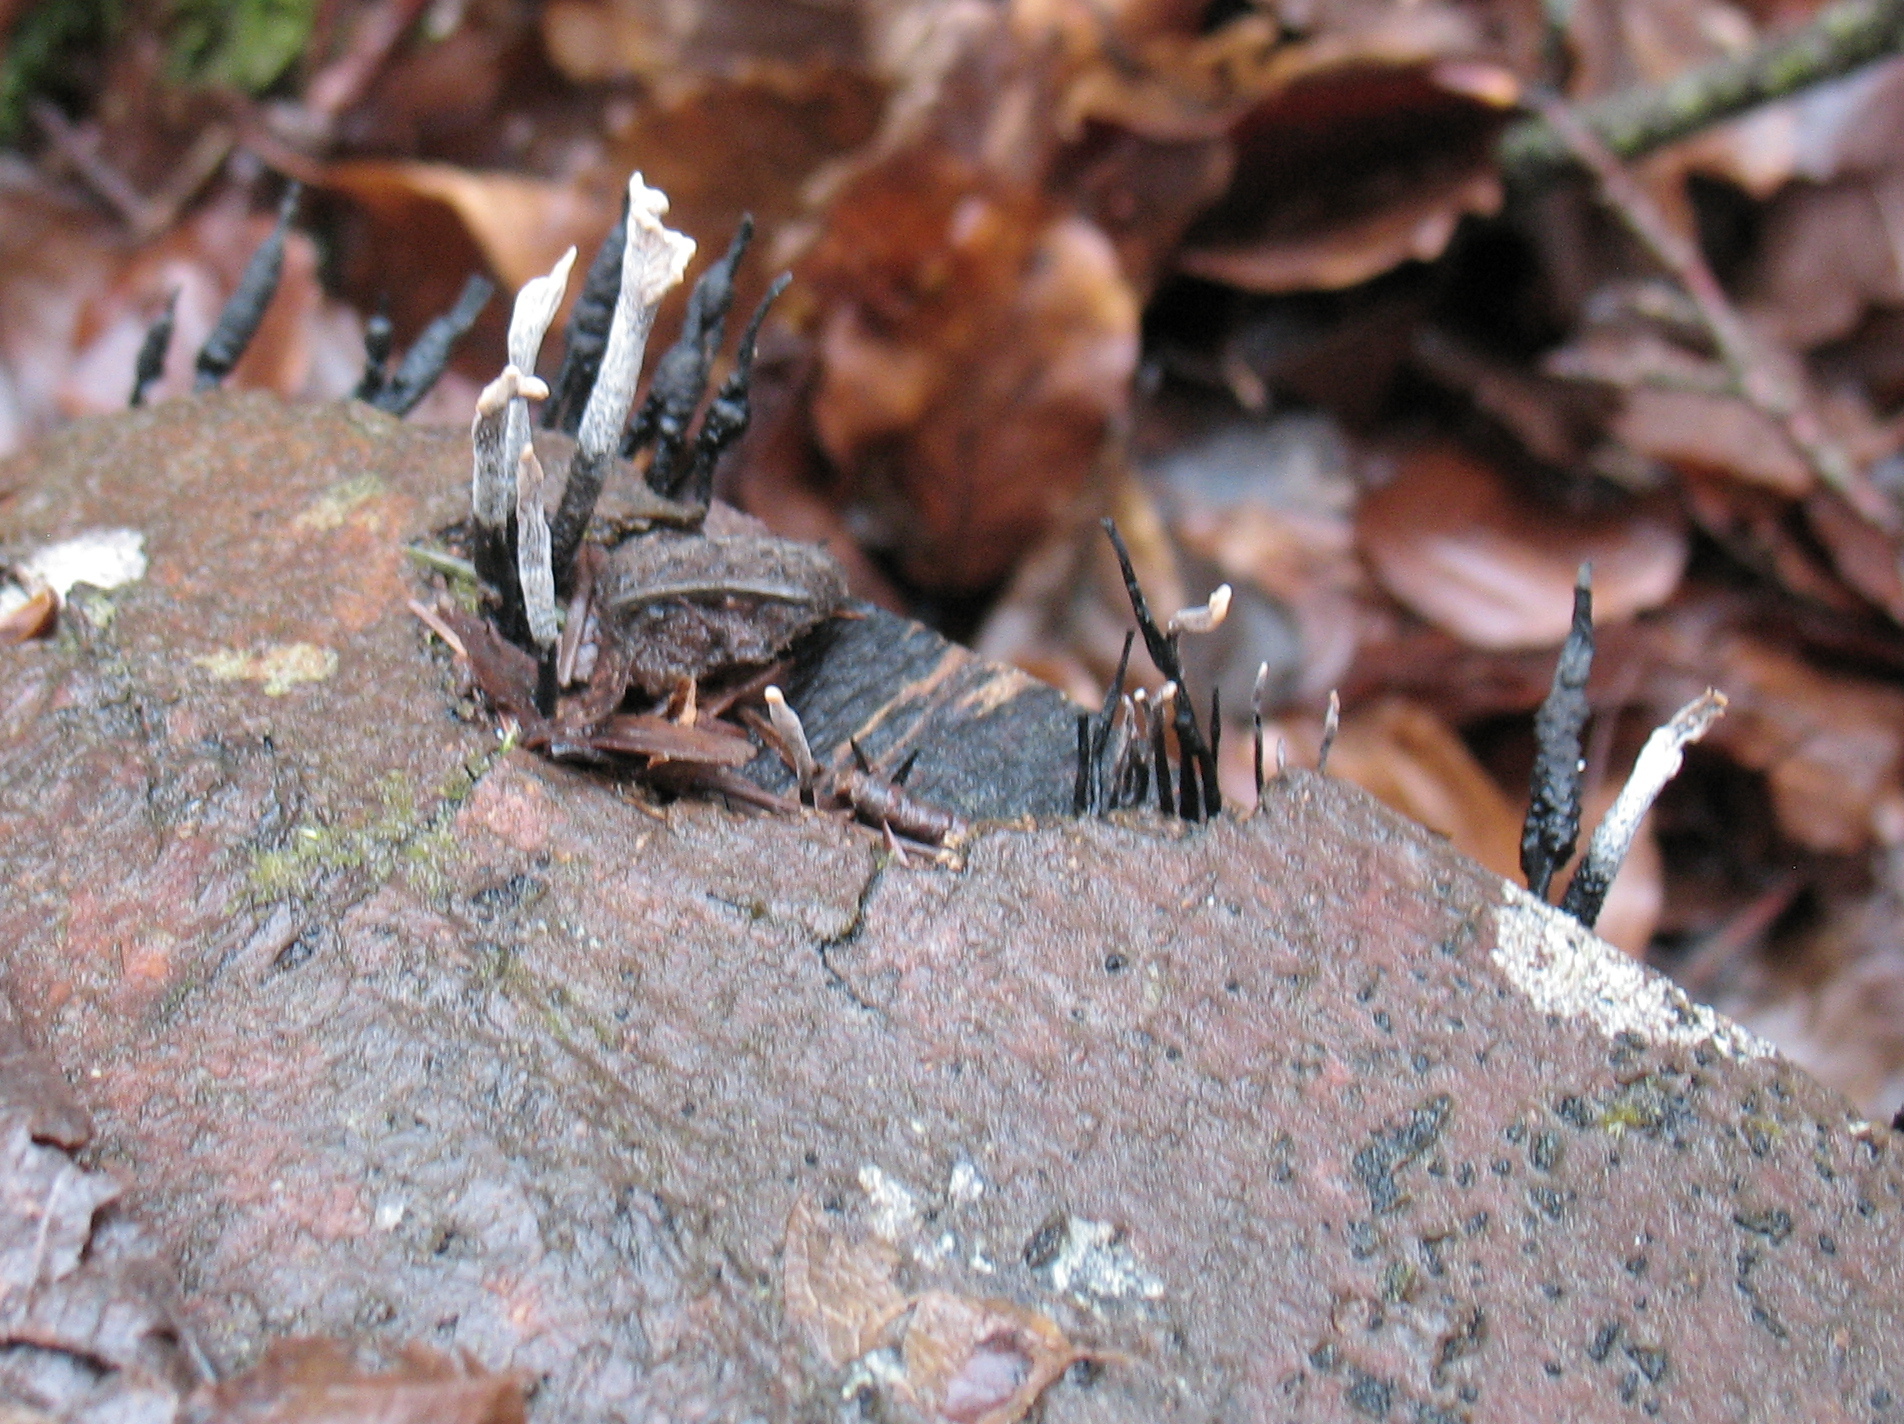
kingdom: Fungi
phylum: Ascomycota
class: Sordariomycetes
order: Xylariales
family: Xylariaceae
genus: Xylaria
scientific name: Xylaria hypoxylon
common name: Candle-snuff fungus
